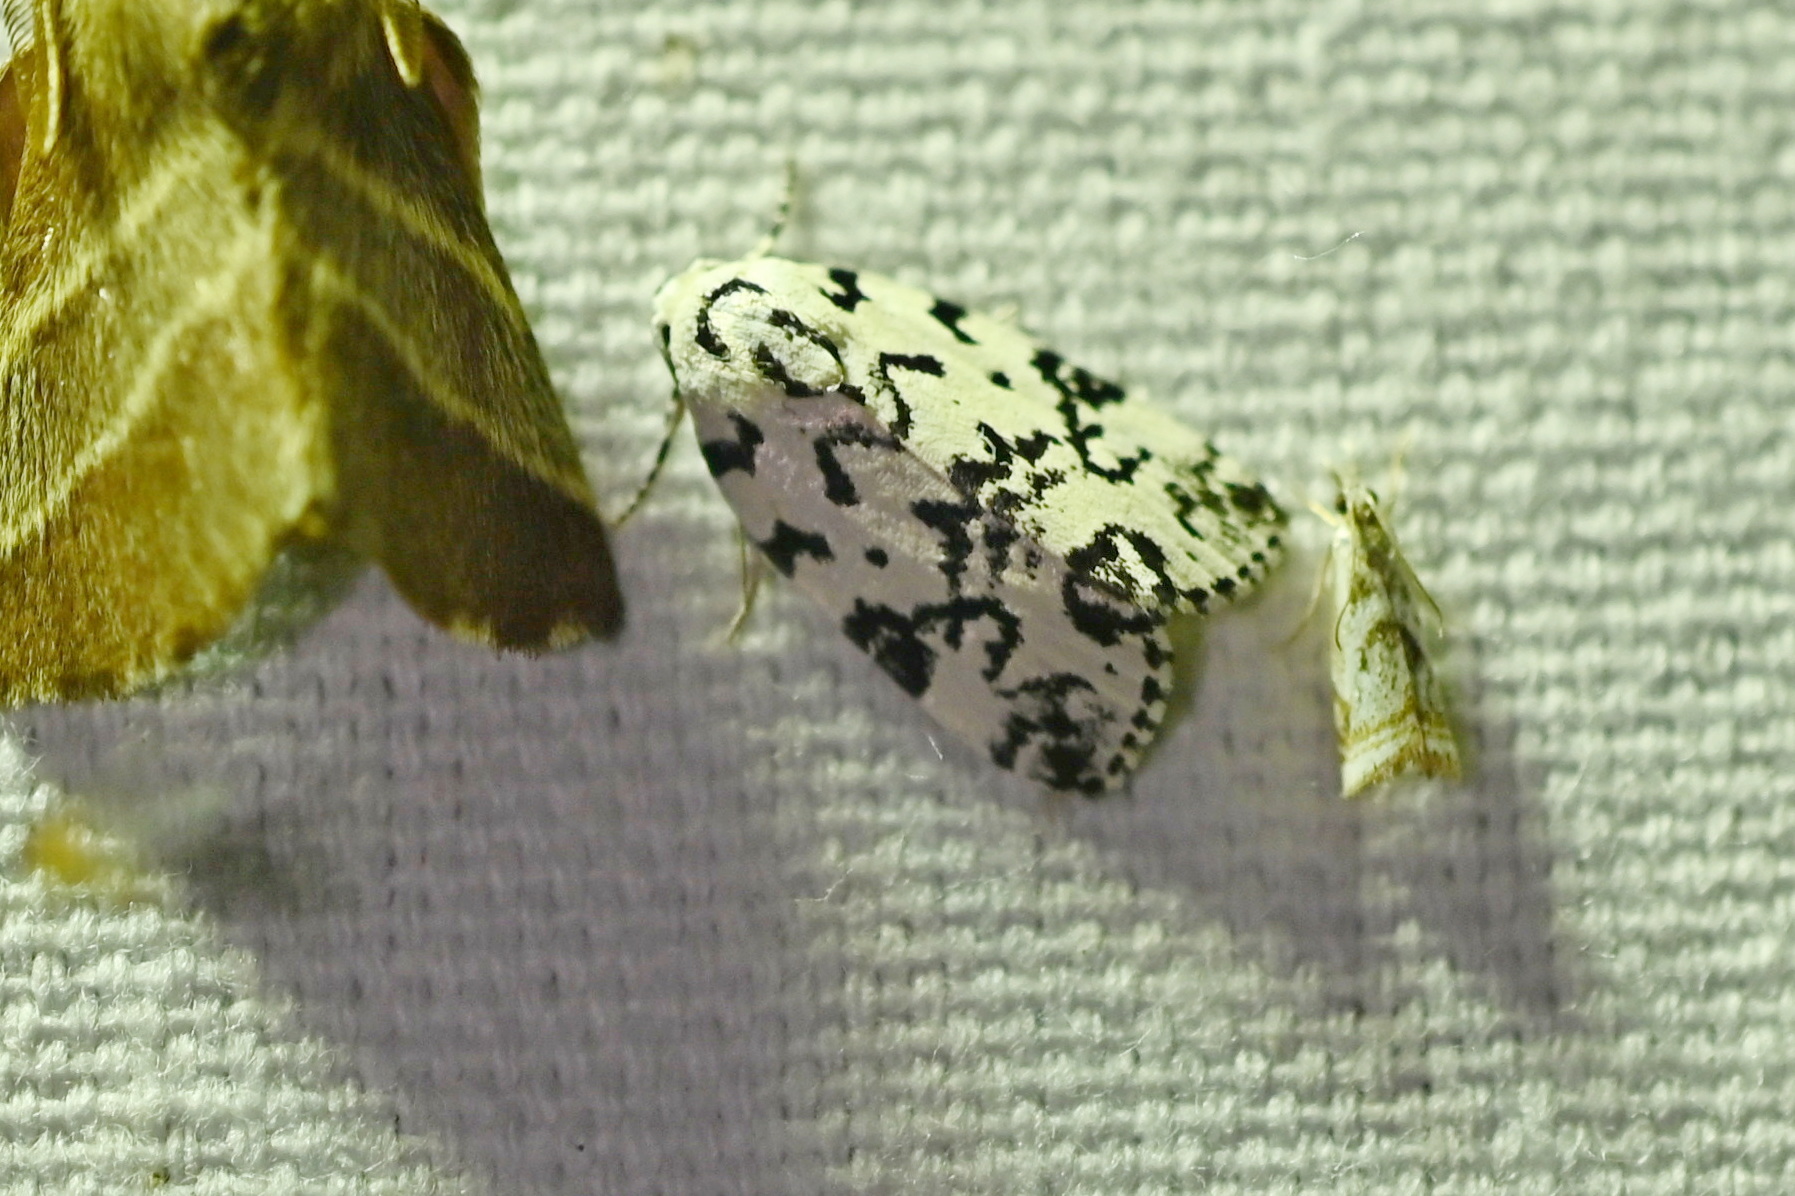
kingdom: Animalia
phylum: Arthropoda
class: Insecta
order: Lepidoptera
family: Noctuidae
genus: Polygrammate
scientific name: Polygrammate hebraeicum
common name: Hebrew moth
